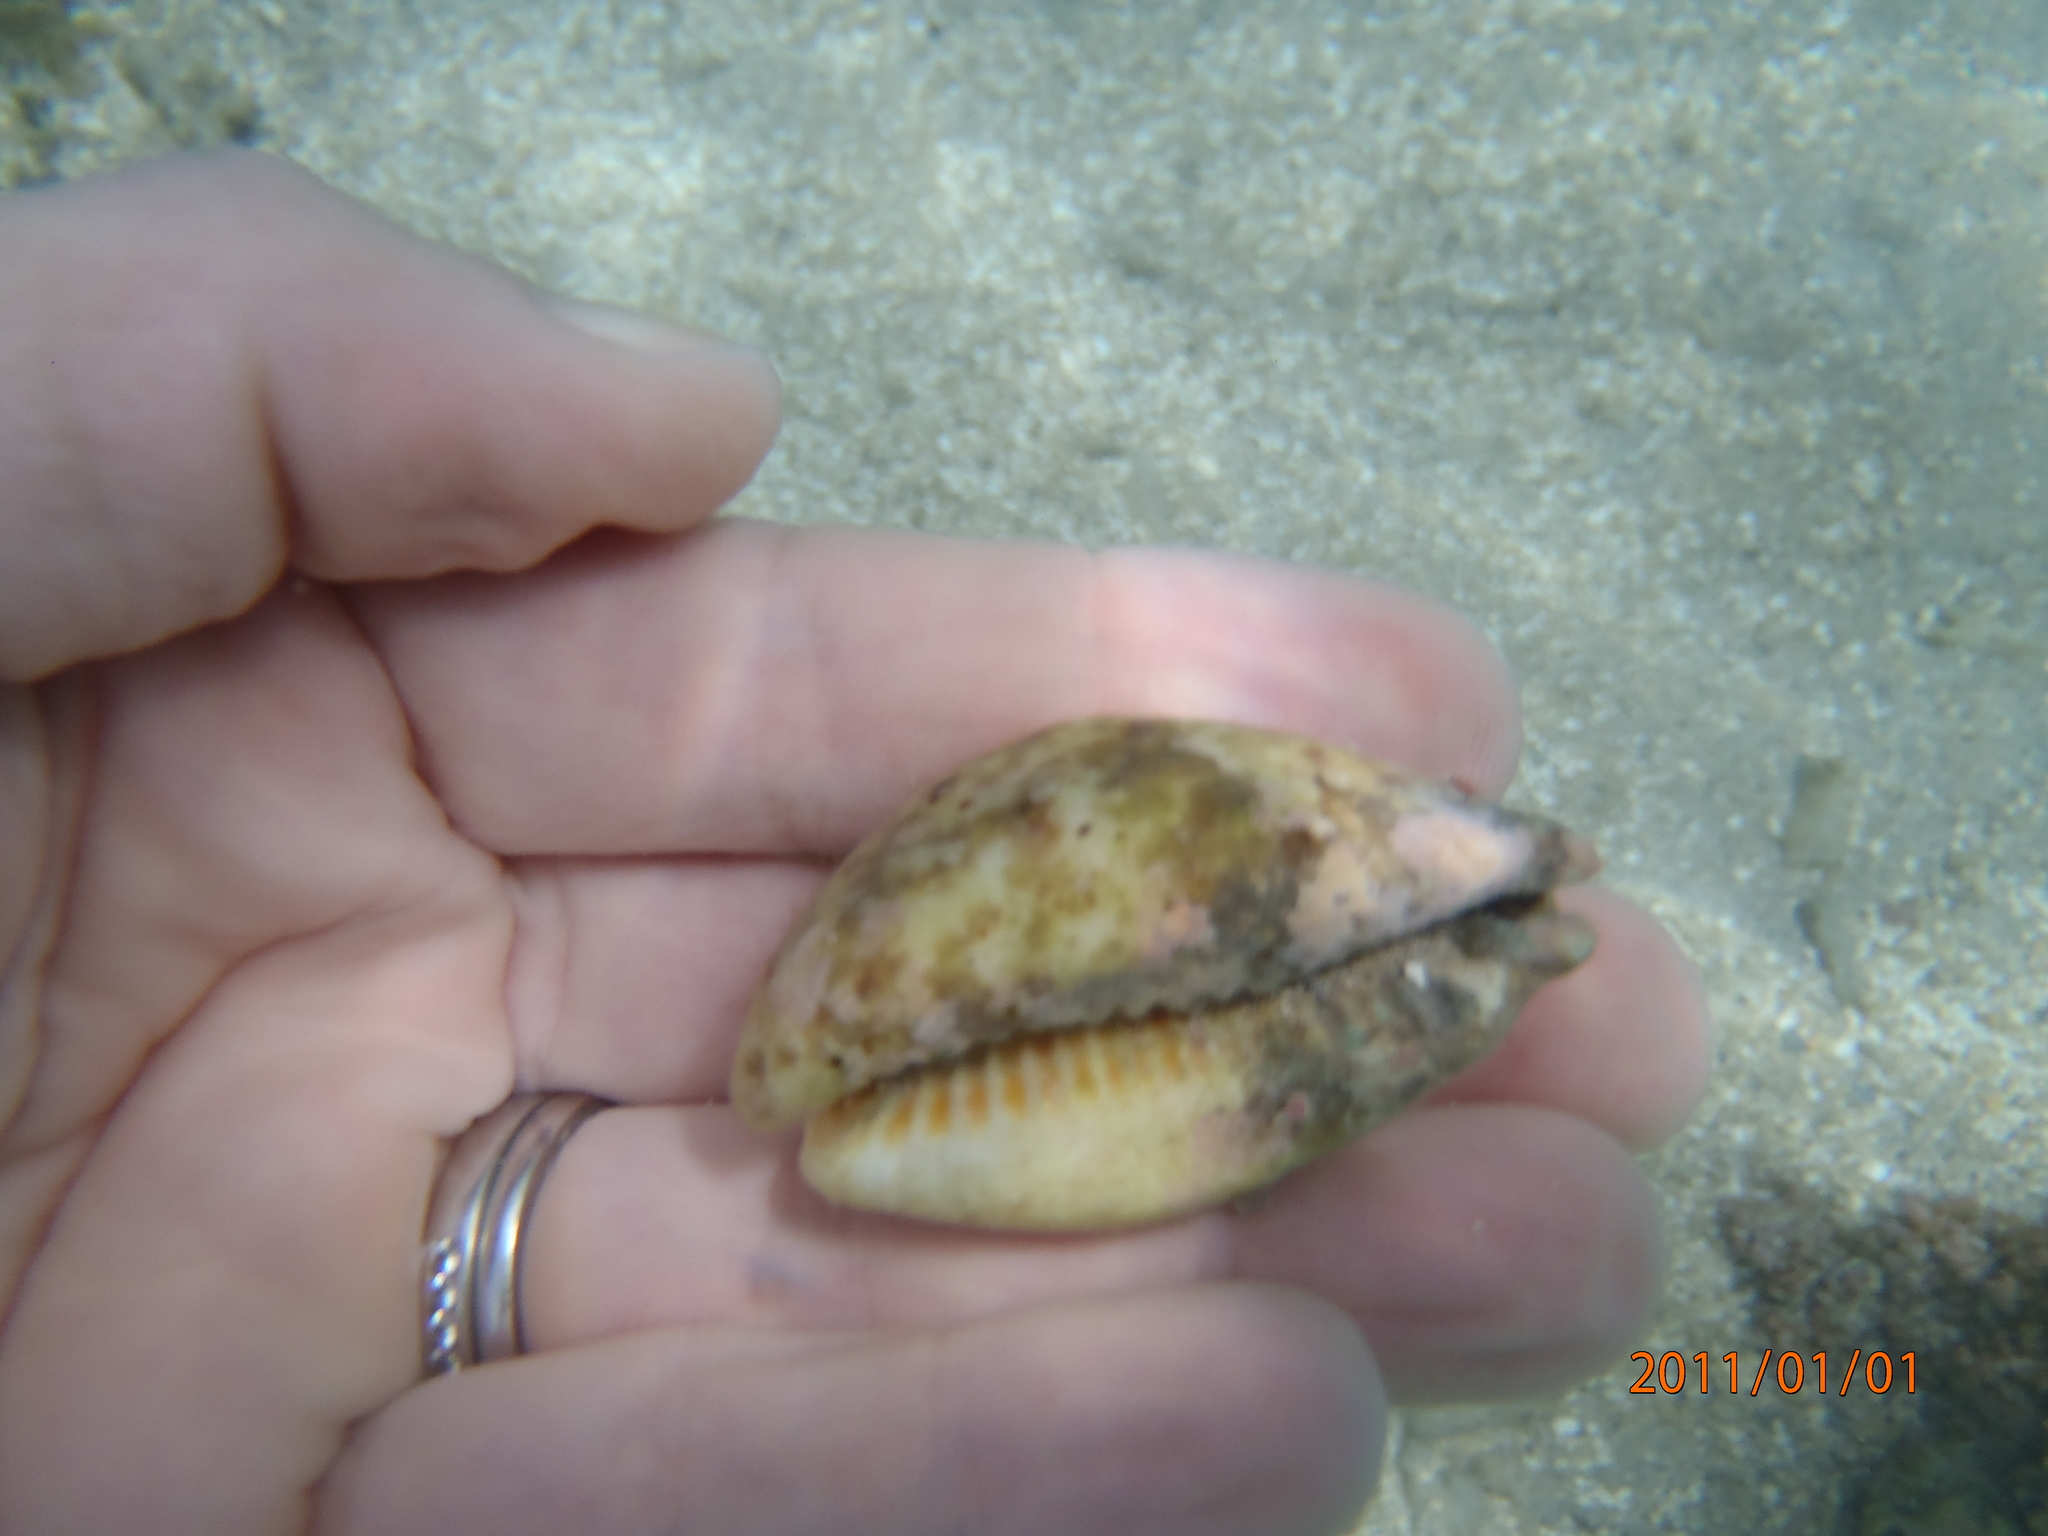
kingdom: Animalia
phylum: Mollusca
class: Gastropoda
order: Littorinimorpha
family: Cypraeidae
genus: Lyncina
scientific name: Lyncina lynx
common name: Bobcat cowrie
